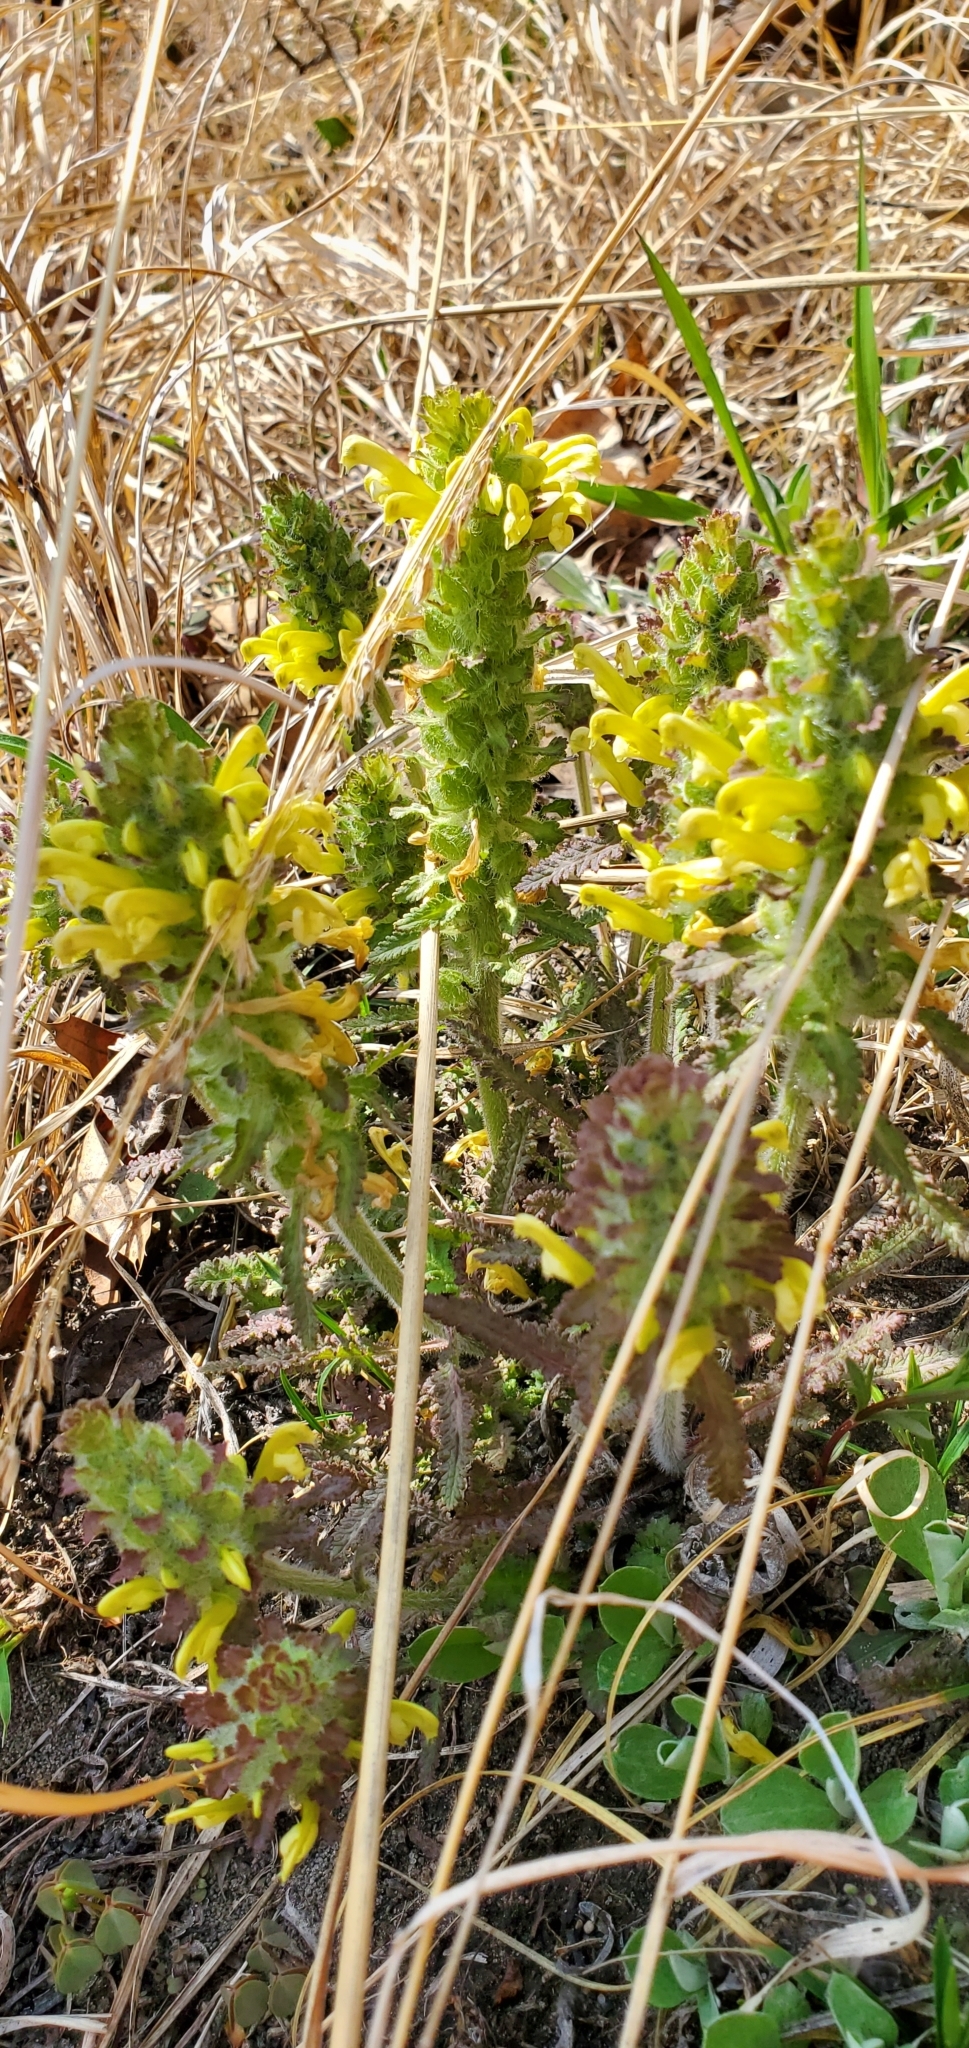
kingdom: Plantae
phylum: Tracheophyta
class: Magnoliopsida
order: Lamiales
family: Orobanchaceae
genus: Pedicularis
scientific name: Pedicularis canadensis
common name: Early lousewort
